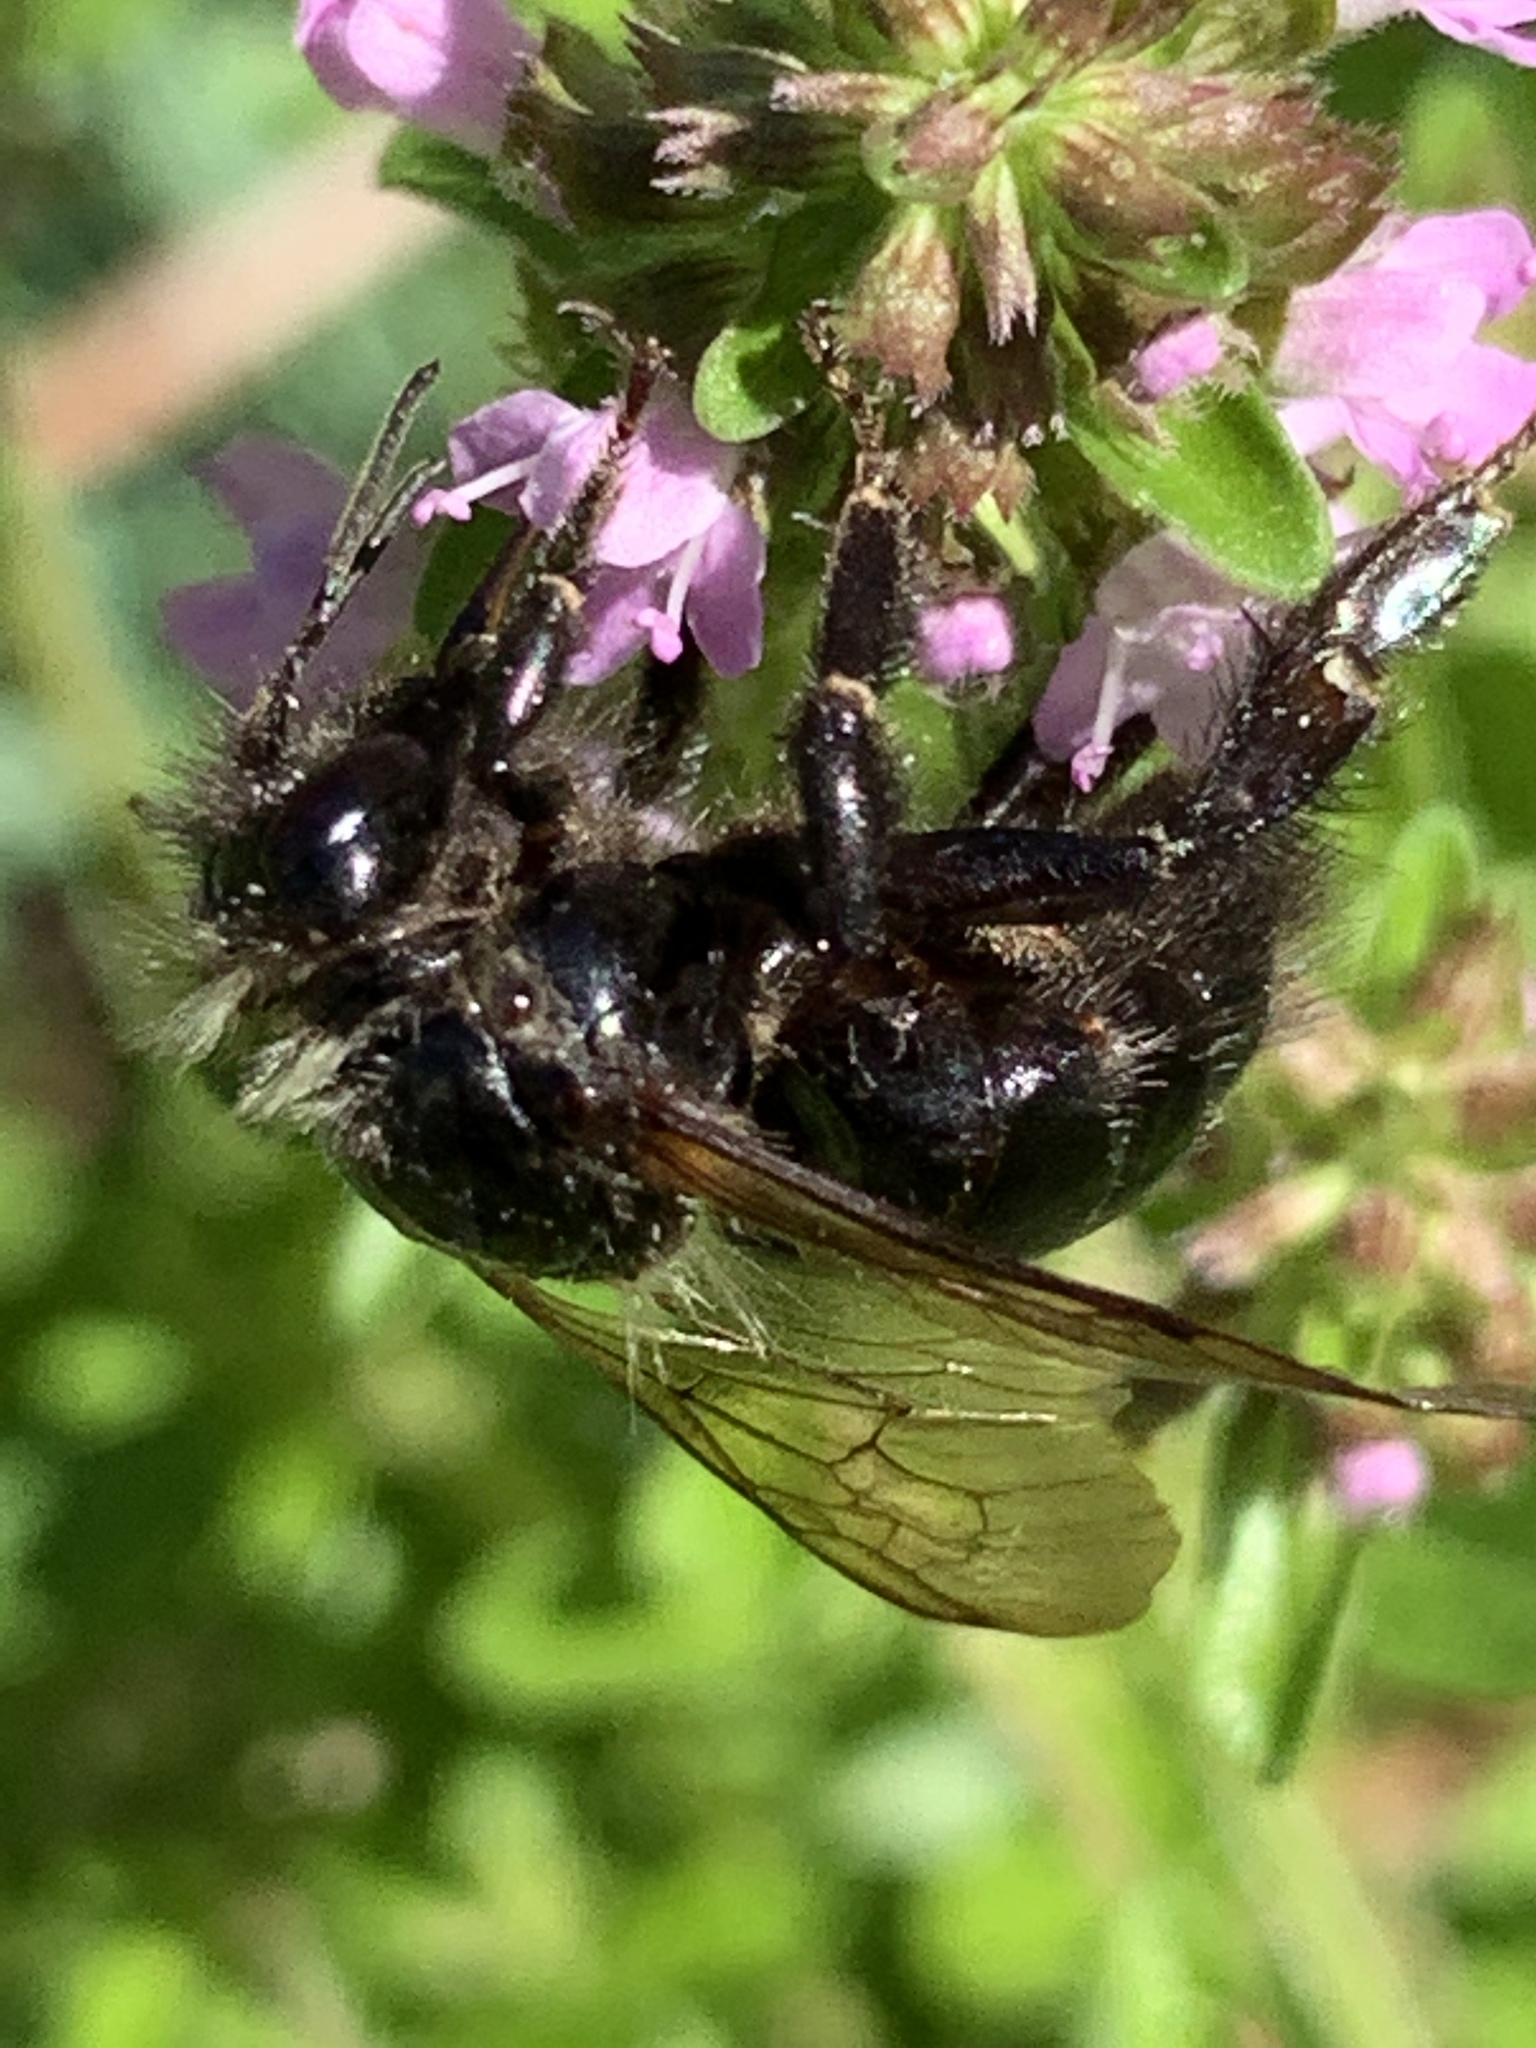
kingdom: Animalia
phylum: Arthropoda
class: Insecta
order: Hymenoptera
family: Apidae
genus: Bombus
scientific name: Bombus
